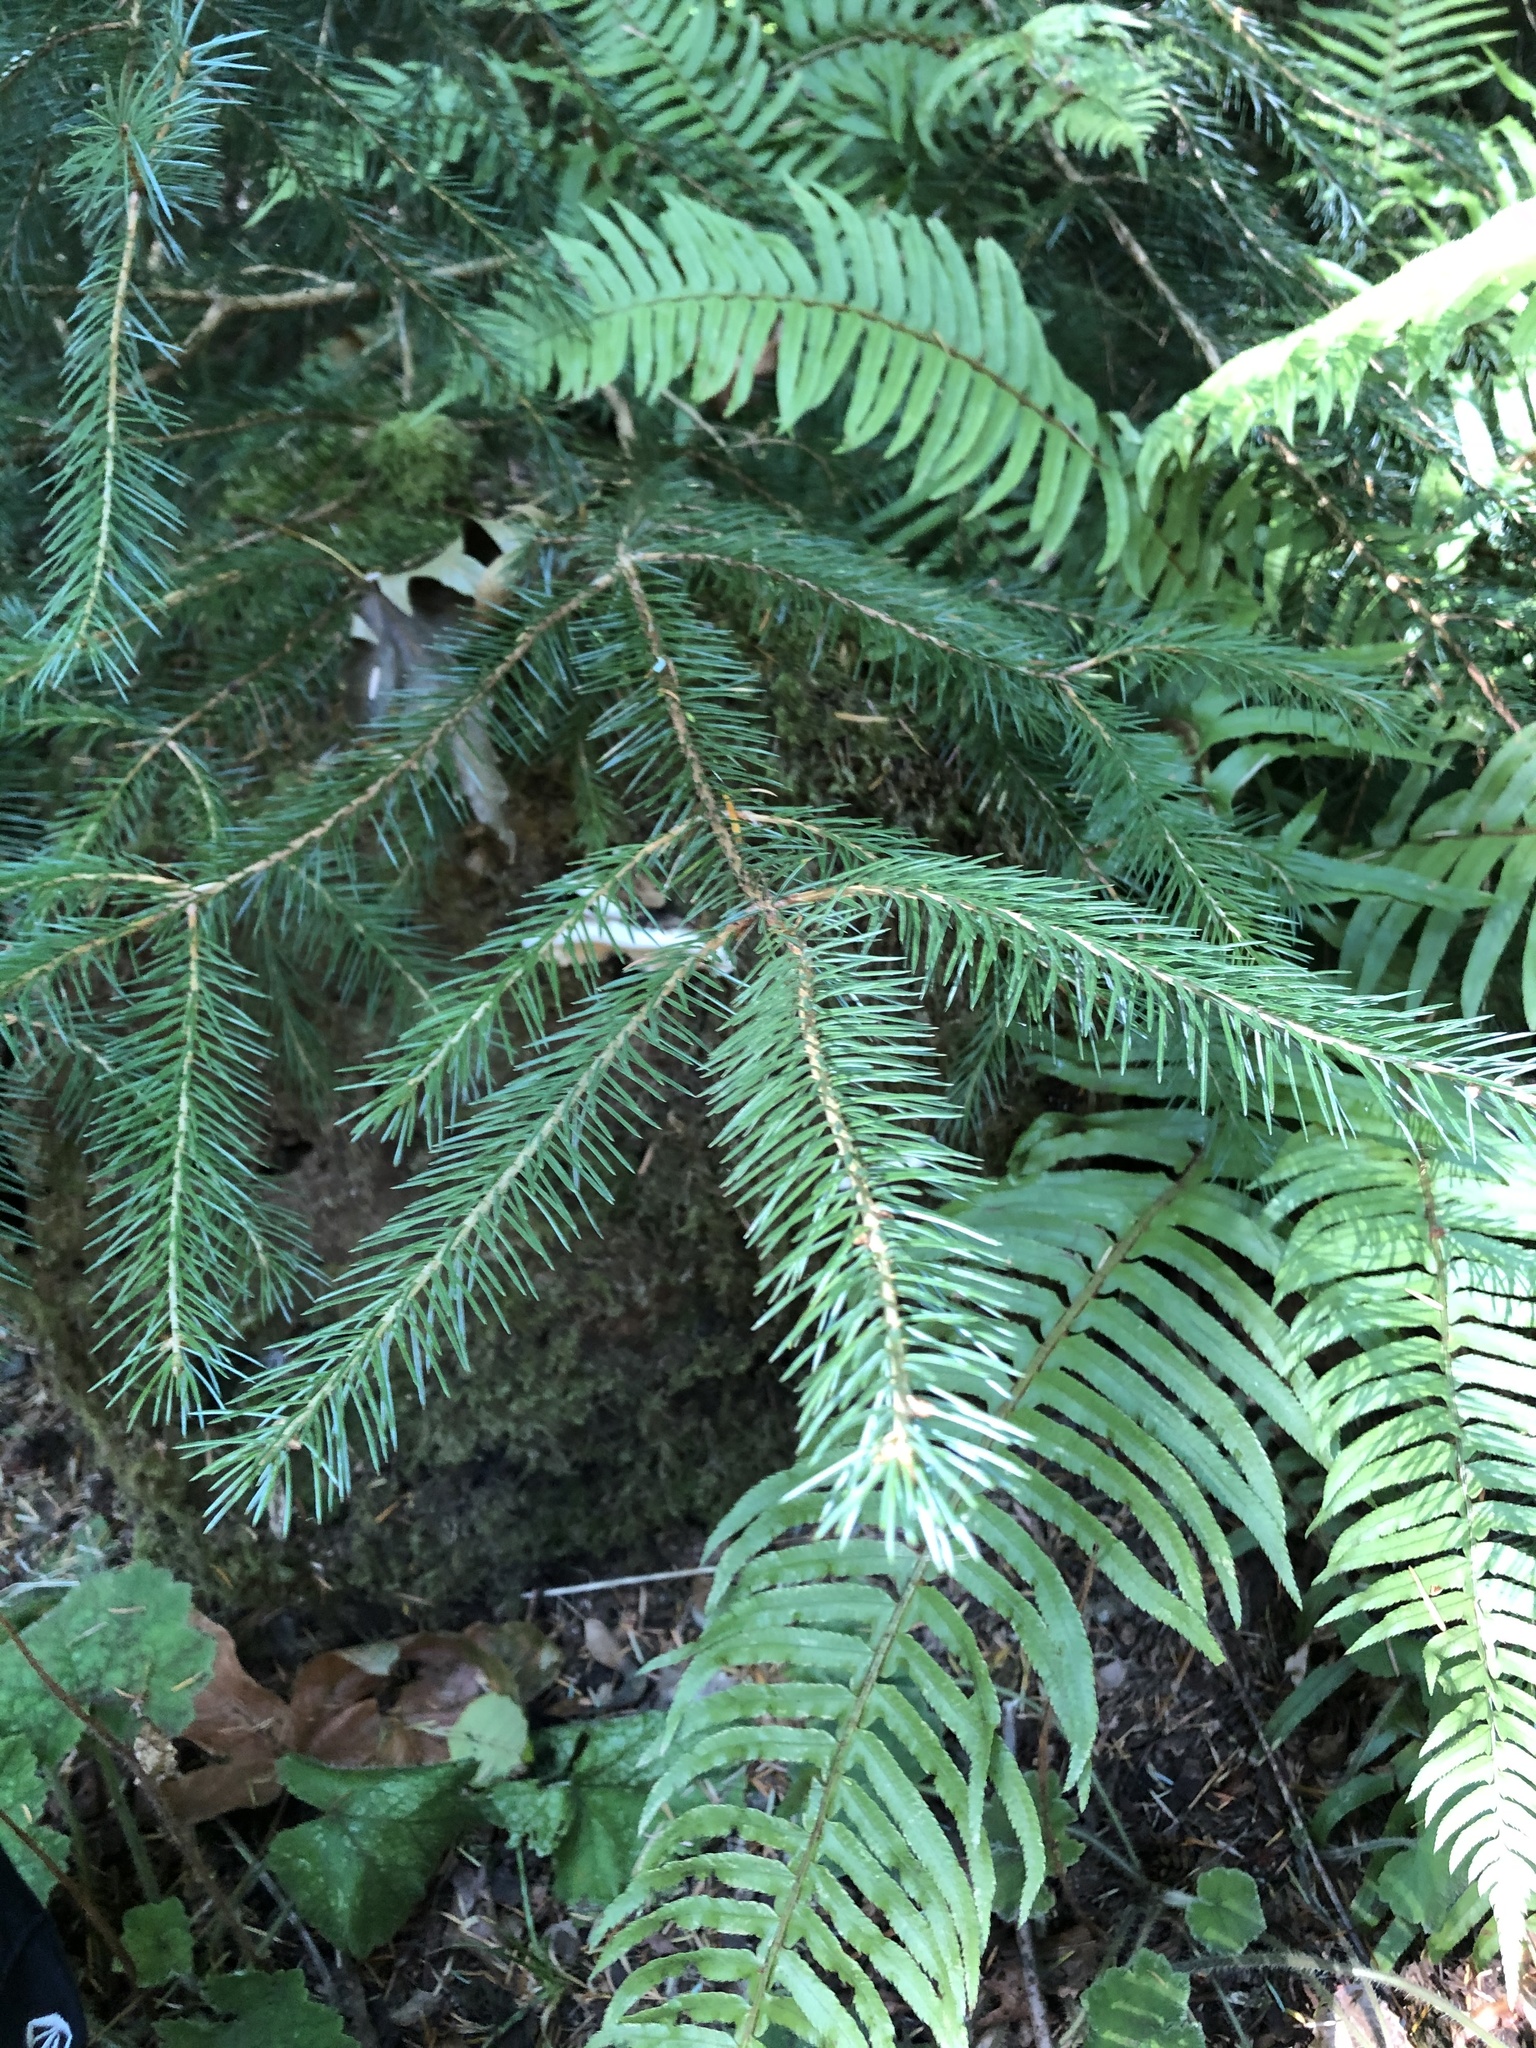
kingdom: Plantae
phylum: Tracheophyta
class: Pinopsida
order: Pinales
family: Pinaceae
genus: Picea
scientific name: Picea sitchensis
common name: Sitka spruce
